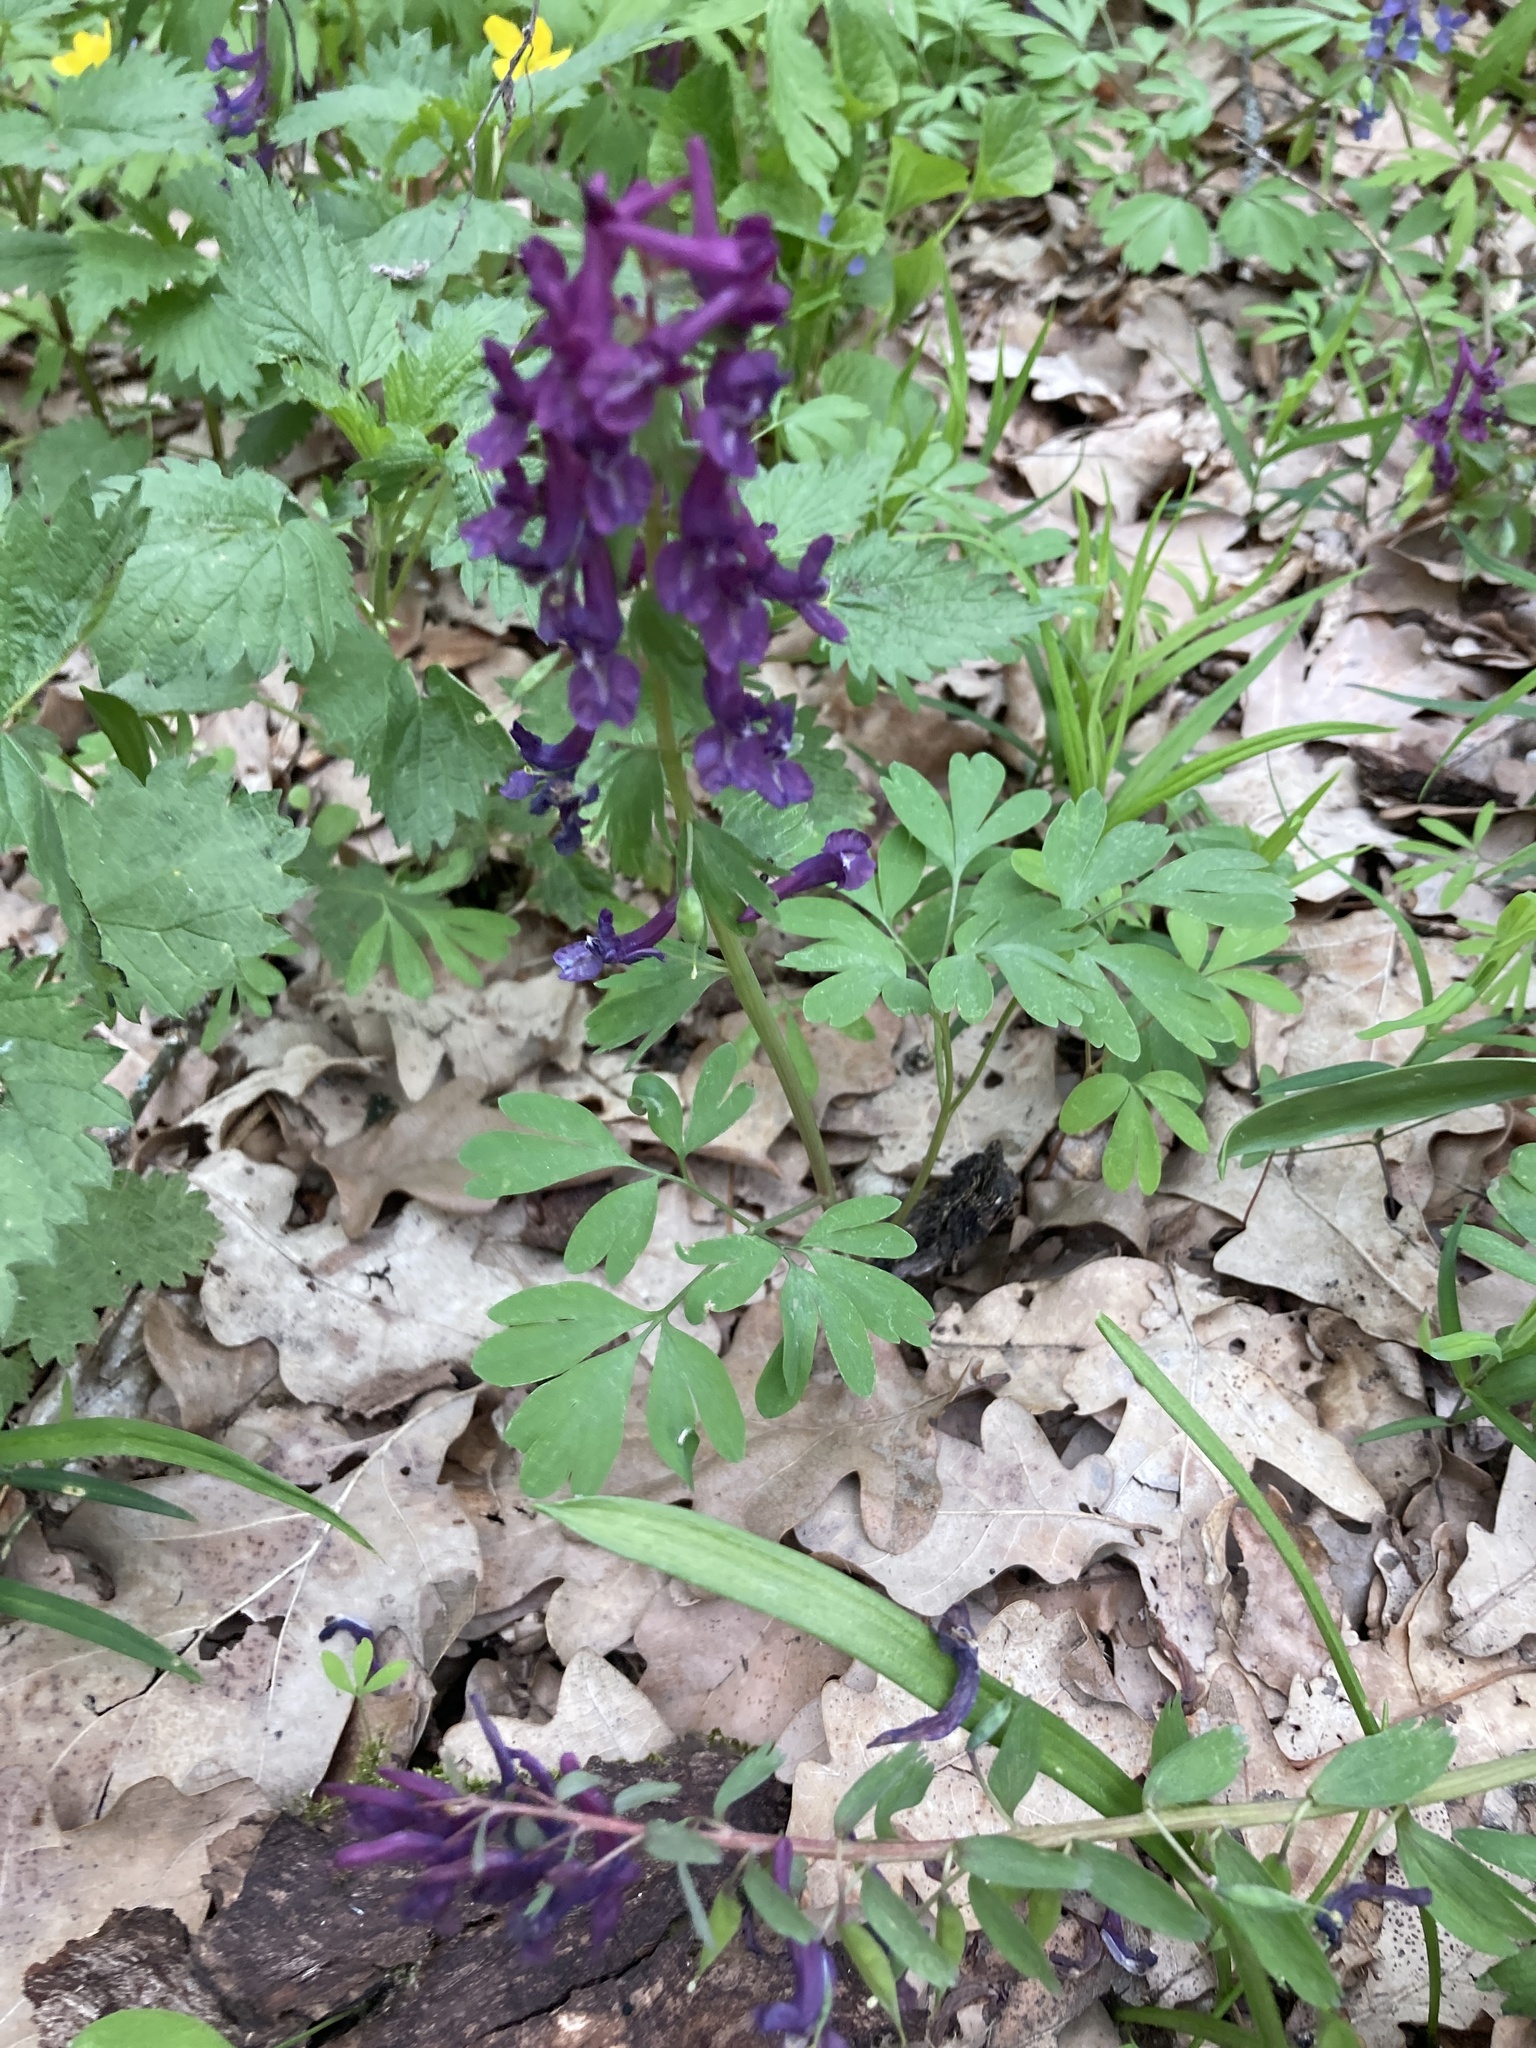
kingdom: Plantae
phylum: Tracheophyta
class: Magnoliopsida
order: Ranunculales
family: Papaveraceae
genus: Corydalis
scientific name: Corydalis solida
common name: Bird-in-a-bush
